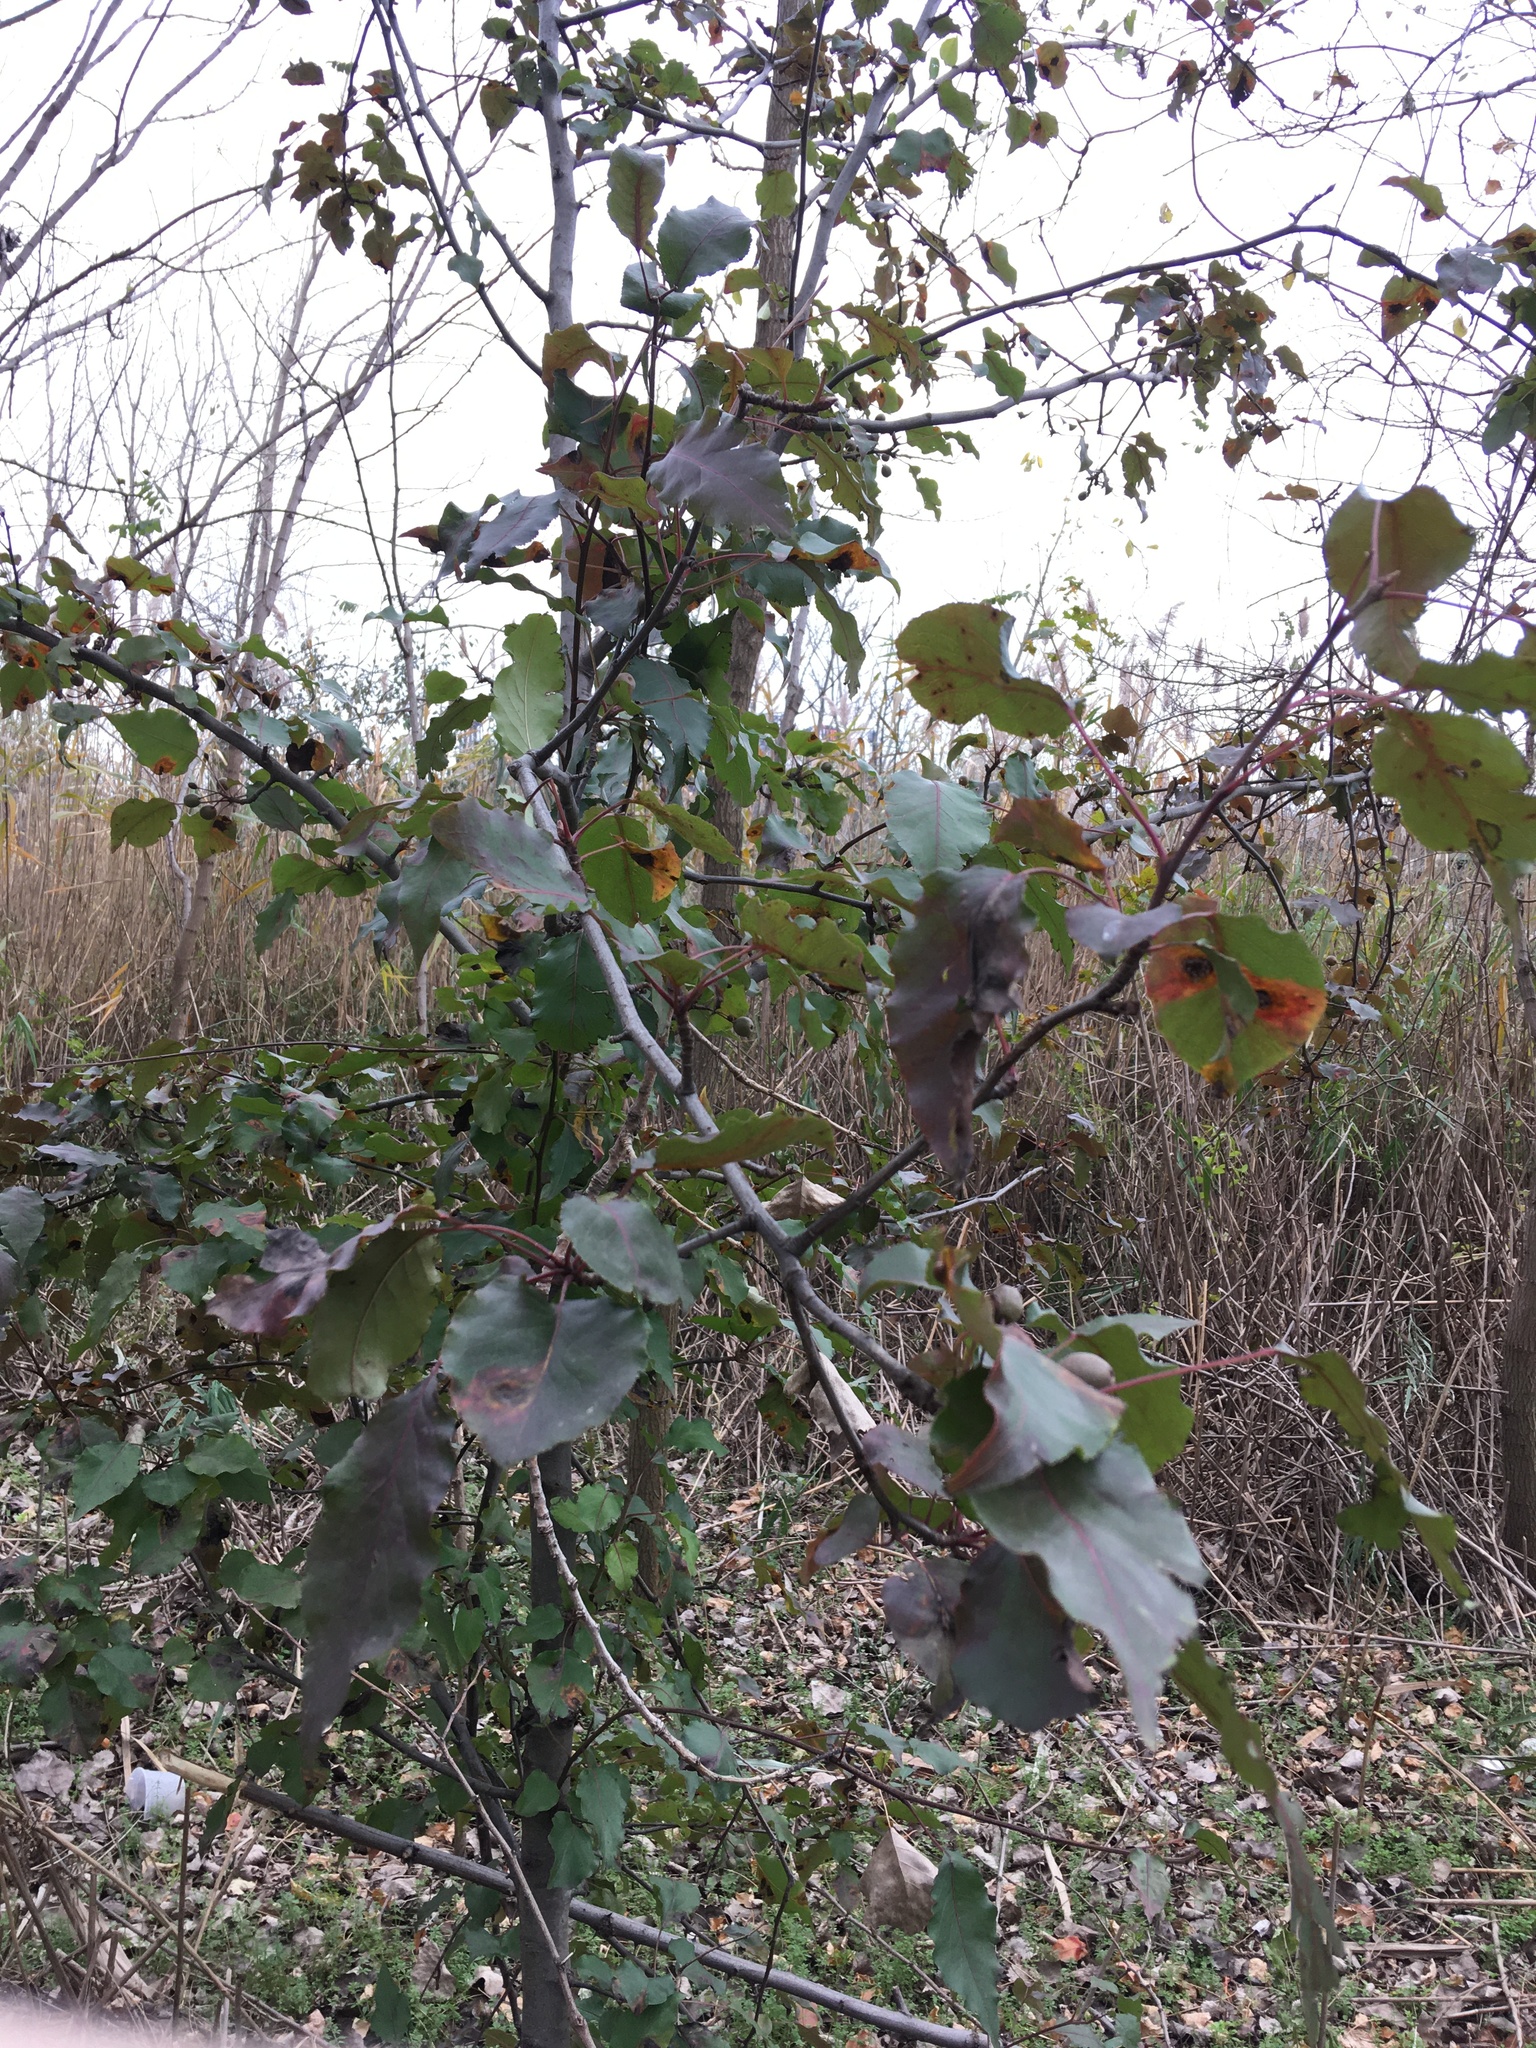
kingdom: Plantae
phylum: Tracheophyta
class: Magnoliopsida
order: Rosales
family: Rosaceae
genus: Pyrus
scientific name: Pyrus calleryana
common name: Callery pear
